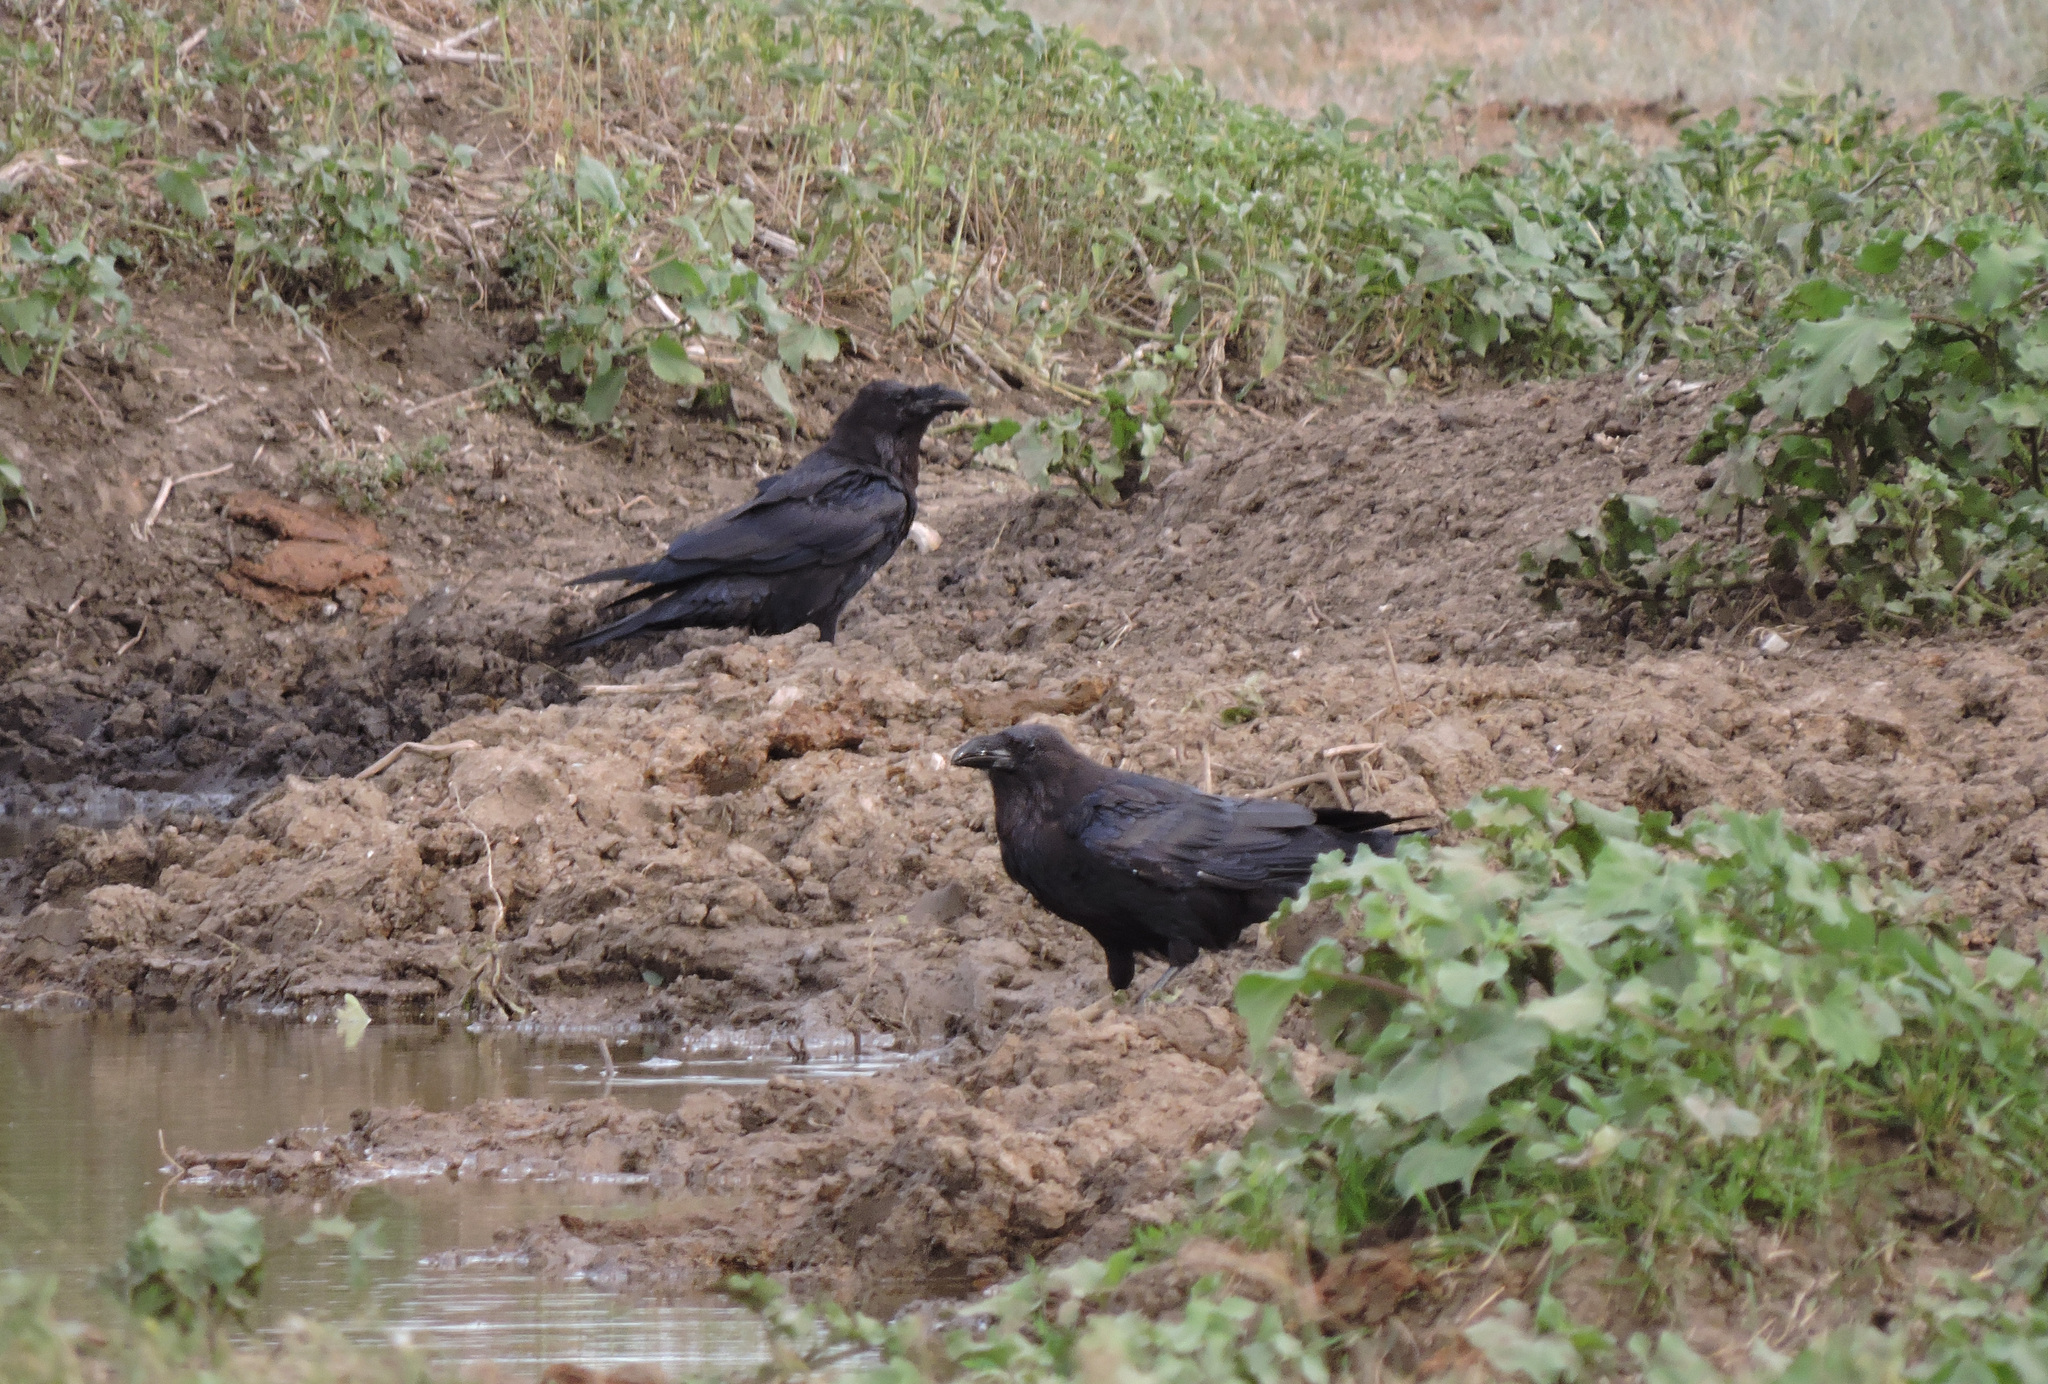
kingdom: Animalia
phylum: Chordata
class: Aves
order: Passeriformes
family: Corvidae
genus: Corvus
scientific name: Corvus corax
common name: Common raven
